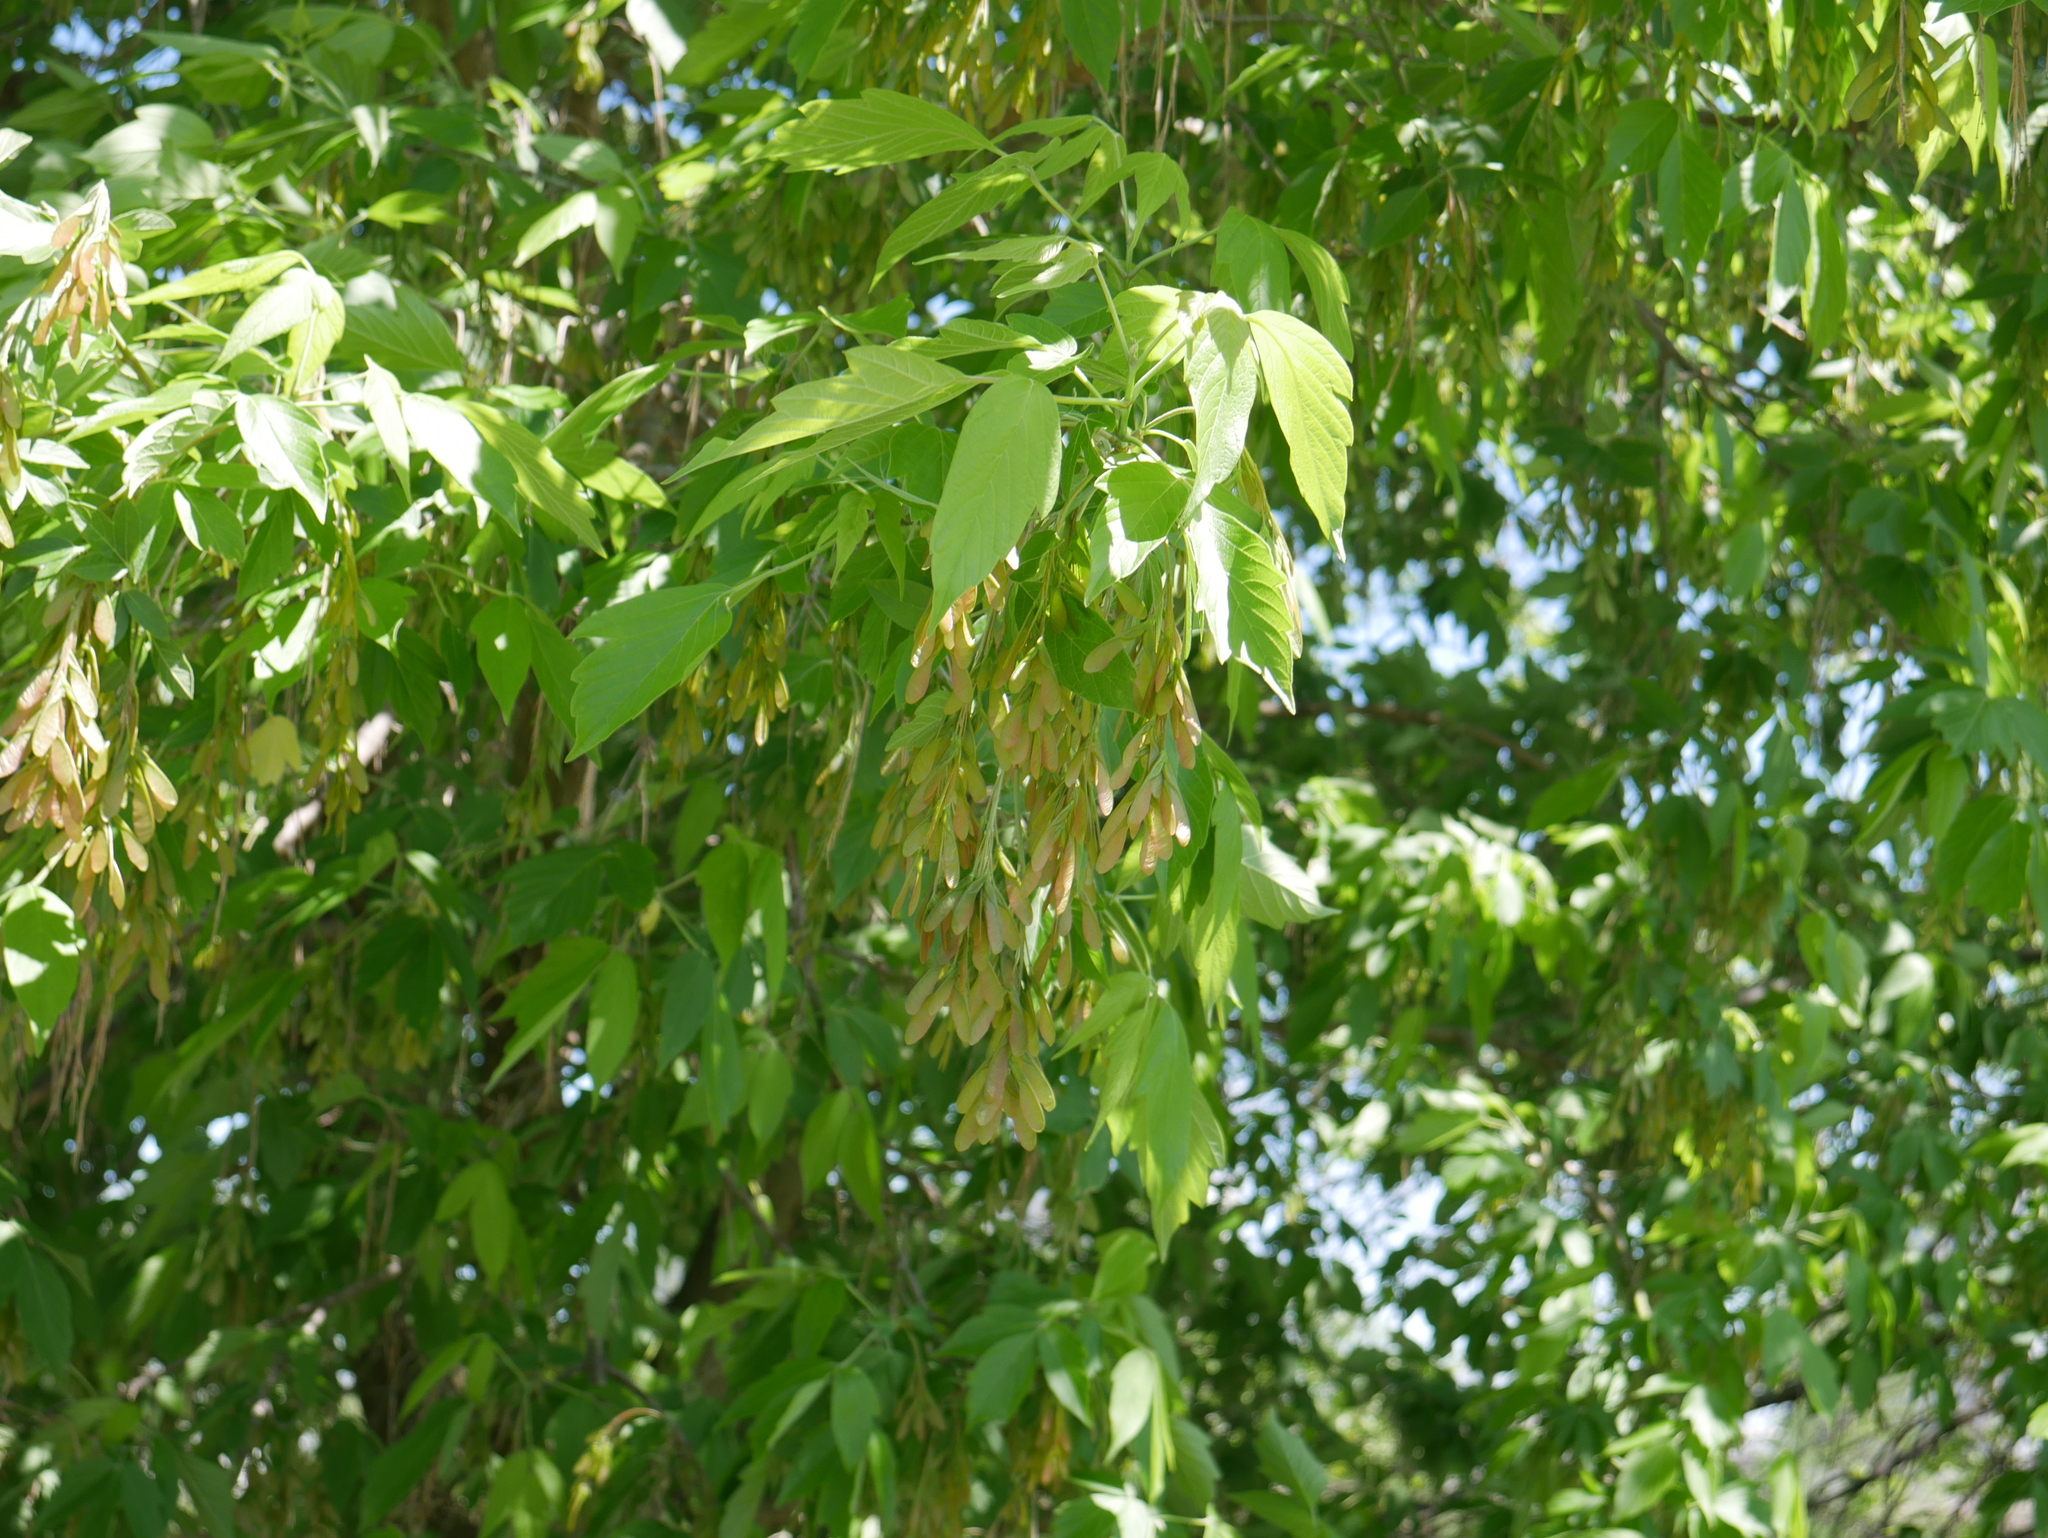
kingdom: Plantae
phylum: Tracheophyta
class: Magnoliopsida
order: Sapindales
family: Sapindaceae
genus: Acer
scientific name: Acer negundo
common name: Ashleaf maple
